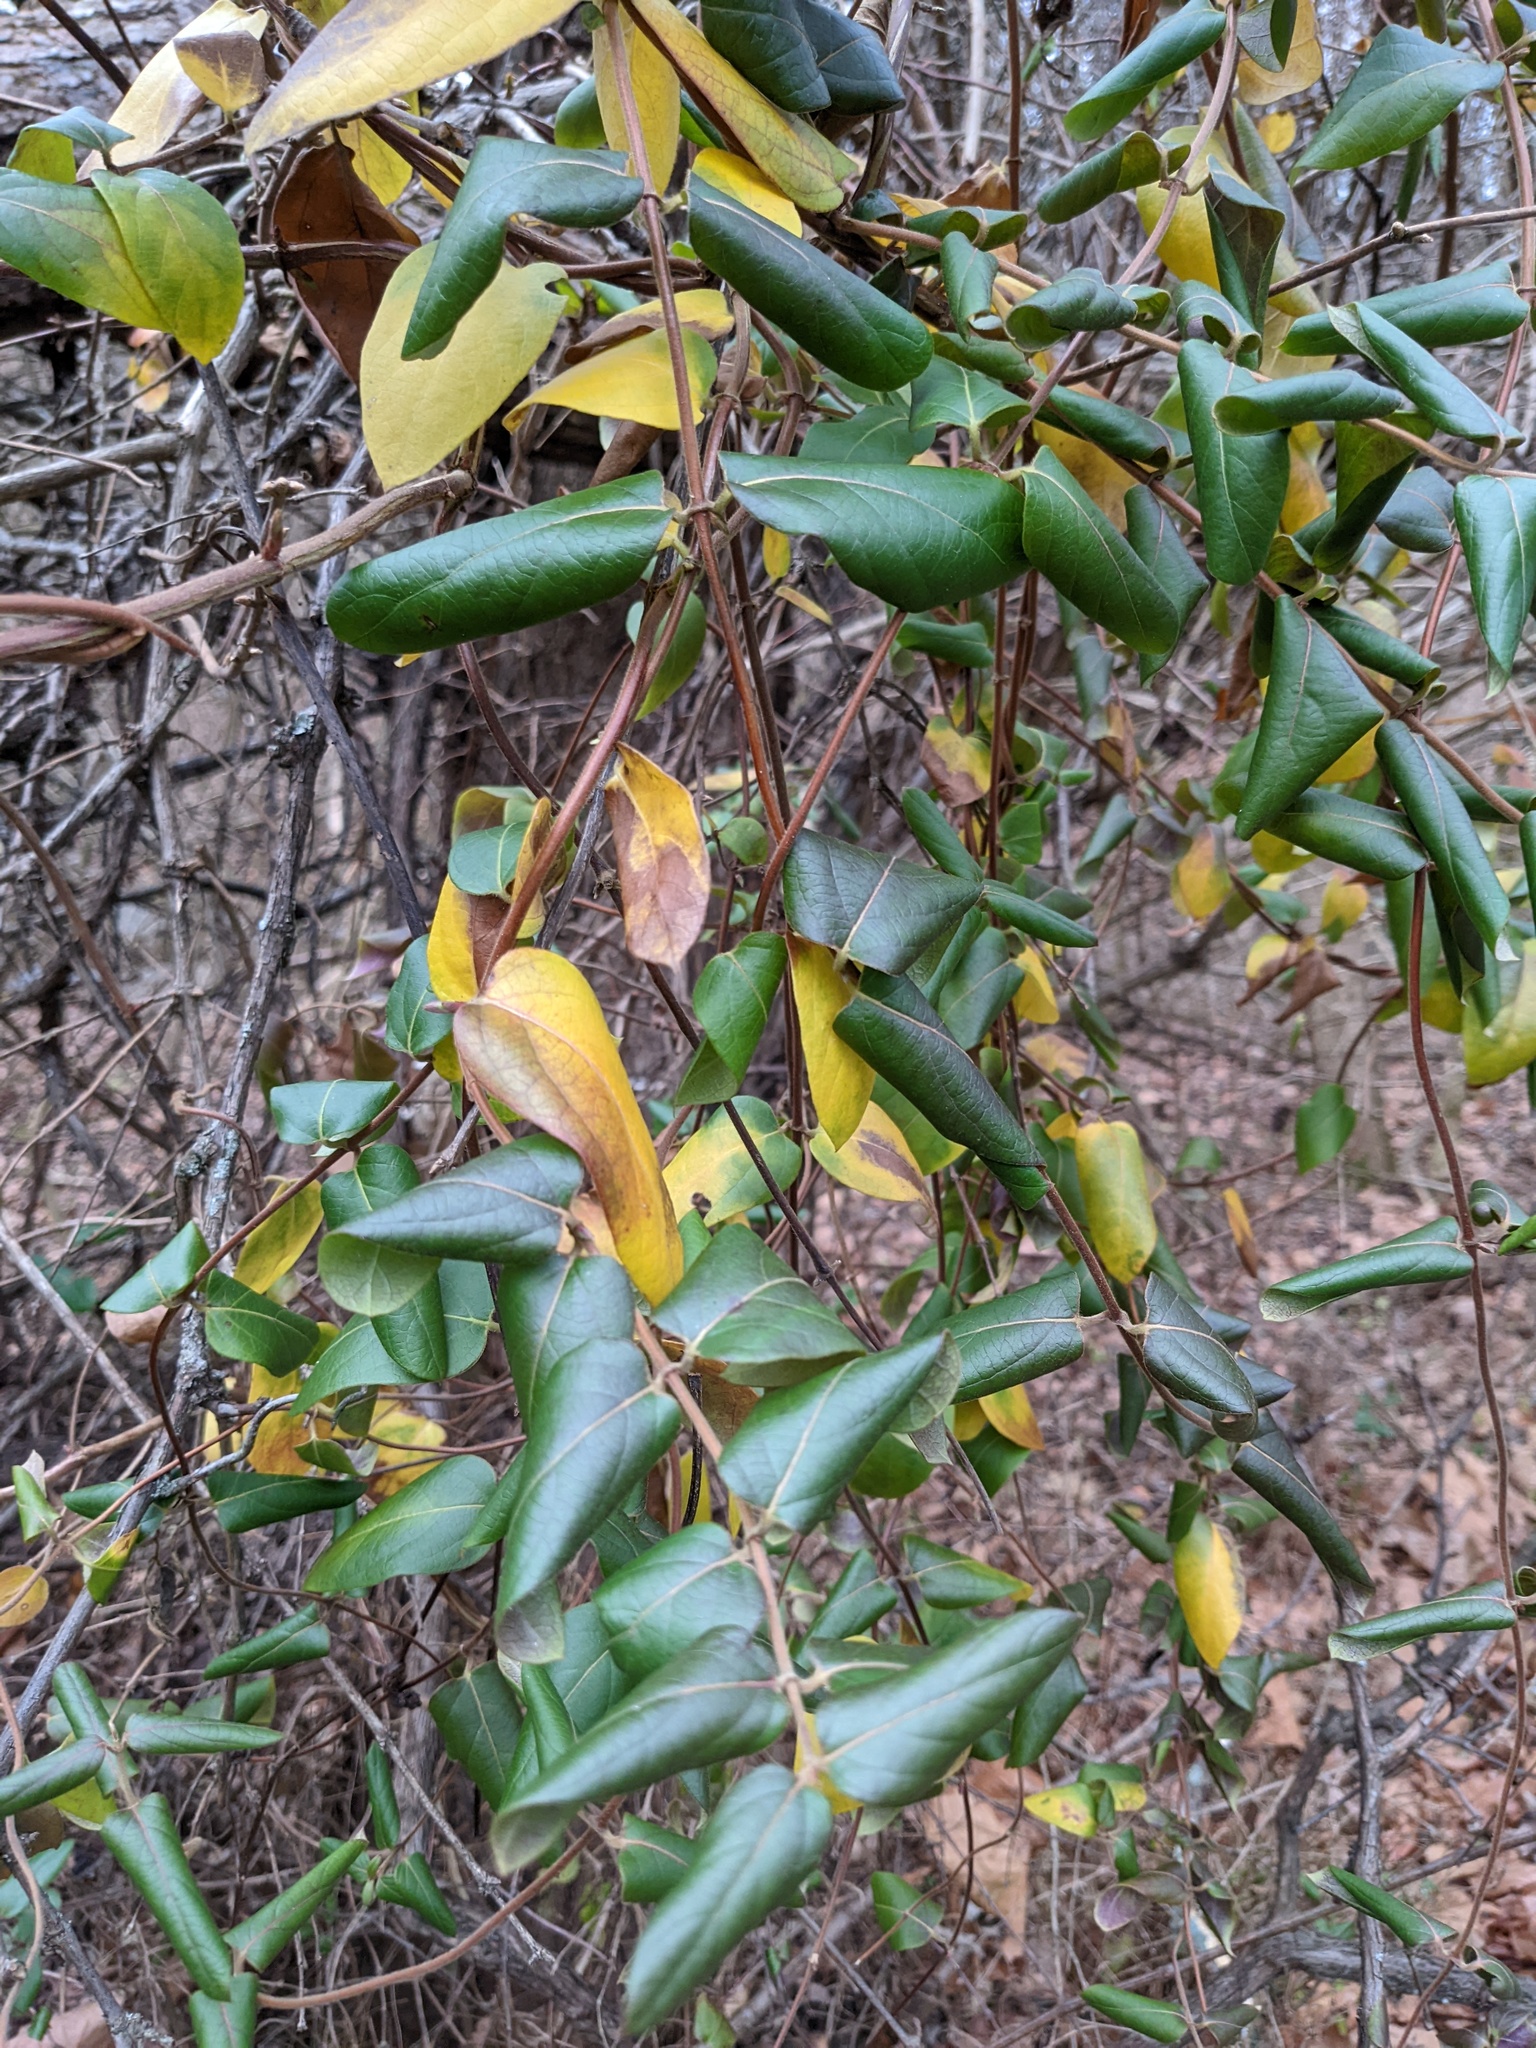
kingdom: Plantae
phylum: Tracheophyta
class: Magnoliopsida
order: Dipsacales
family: Caprifoliaceae
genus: Lonicera
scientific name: Lonicera japonica
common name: Japanese honeysuckle
